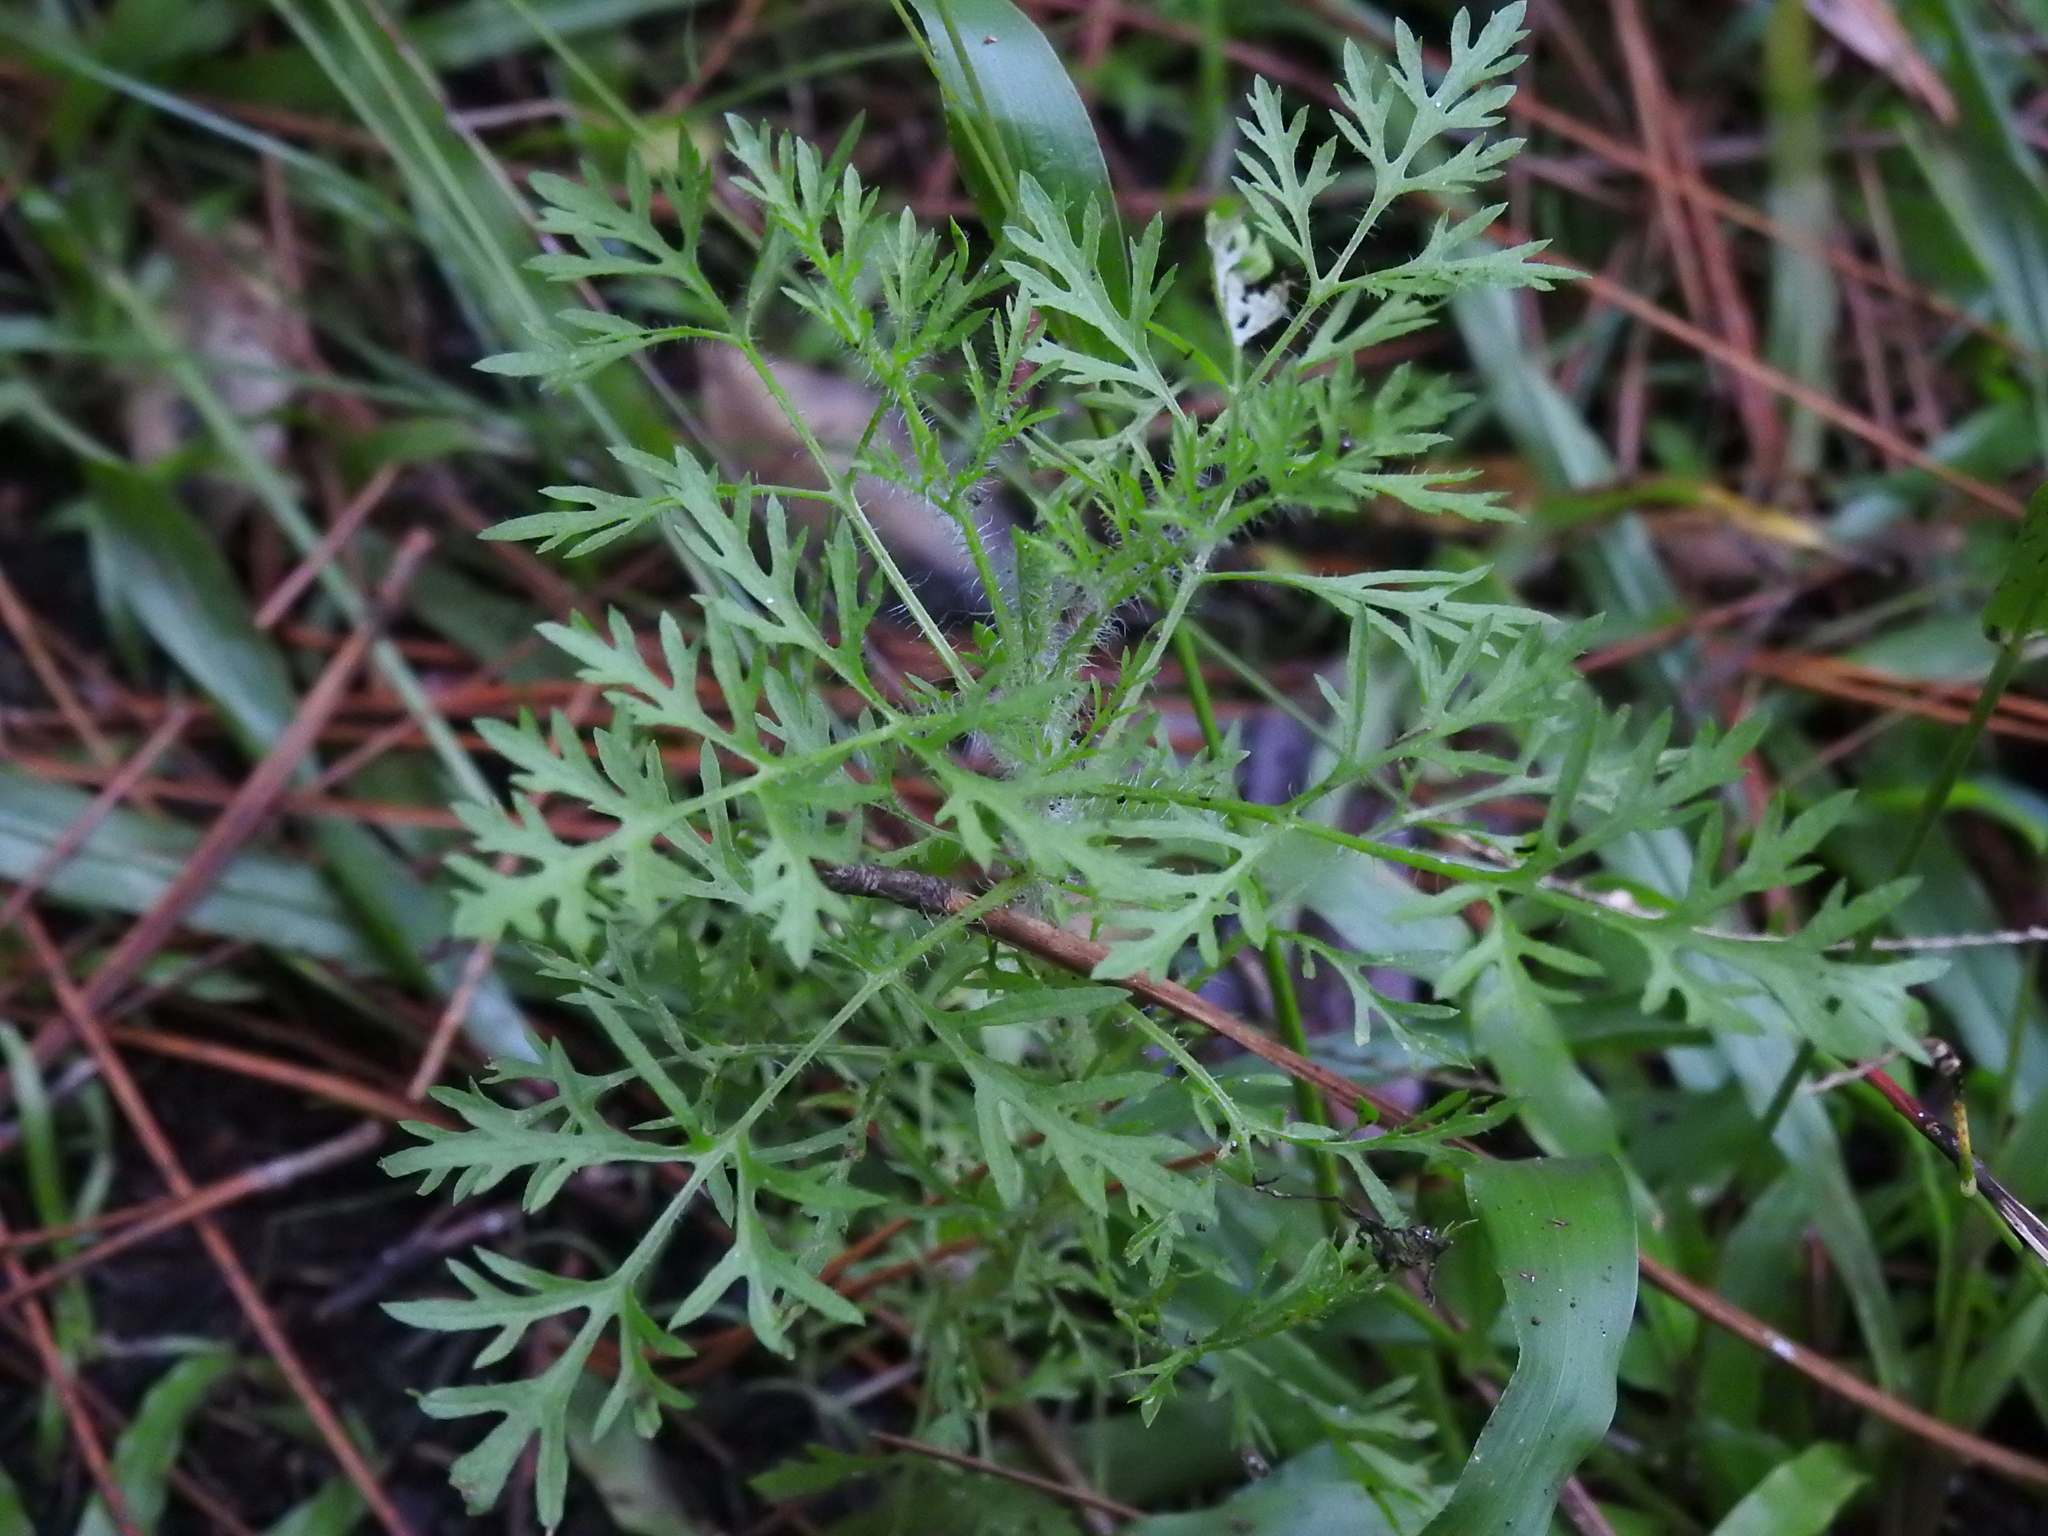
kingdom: Plantae
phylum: Tracheophyta
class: Magnoliopsida
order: Asterales
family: Asteraceae
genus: Eupatorium
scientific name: Eupatorium compositifolium
